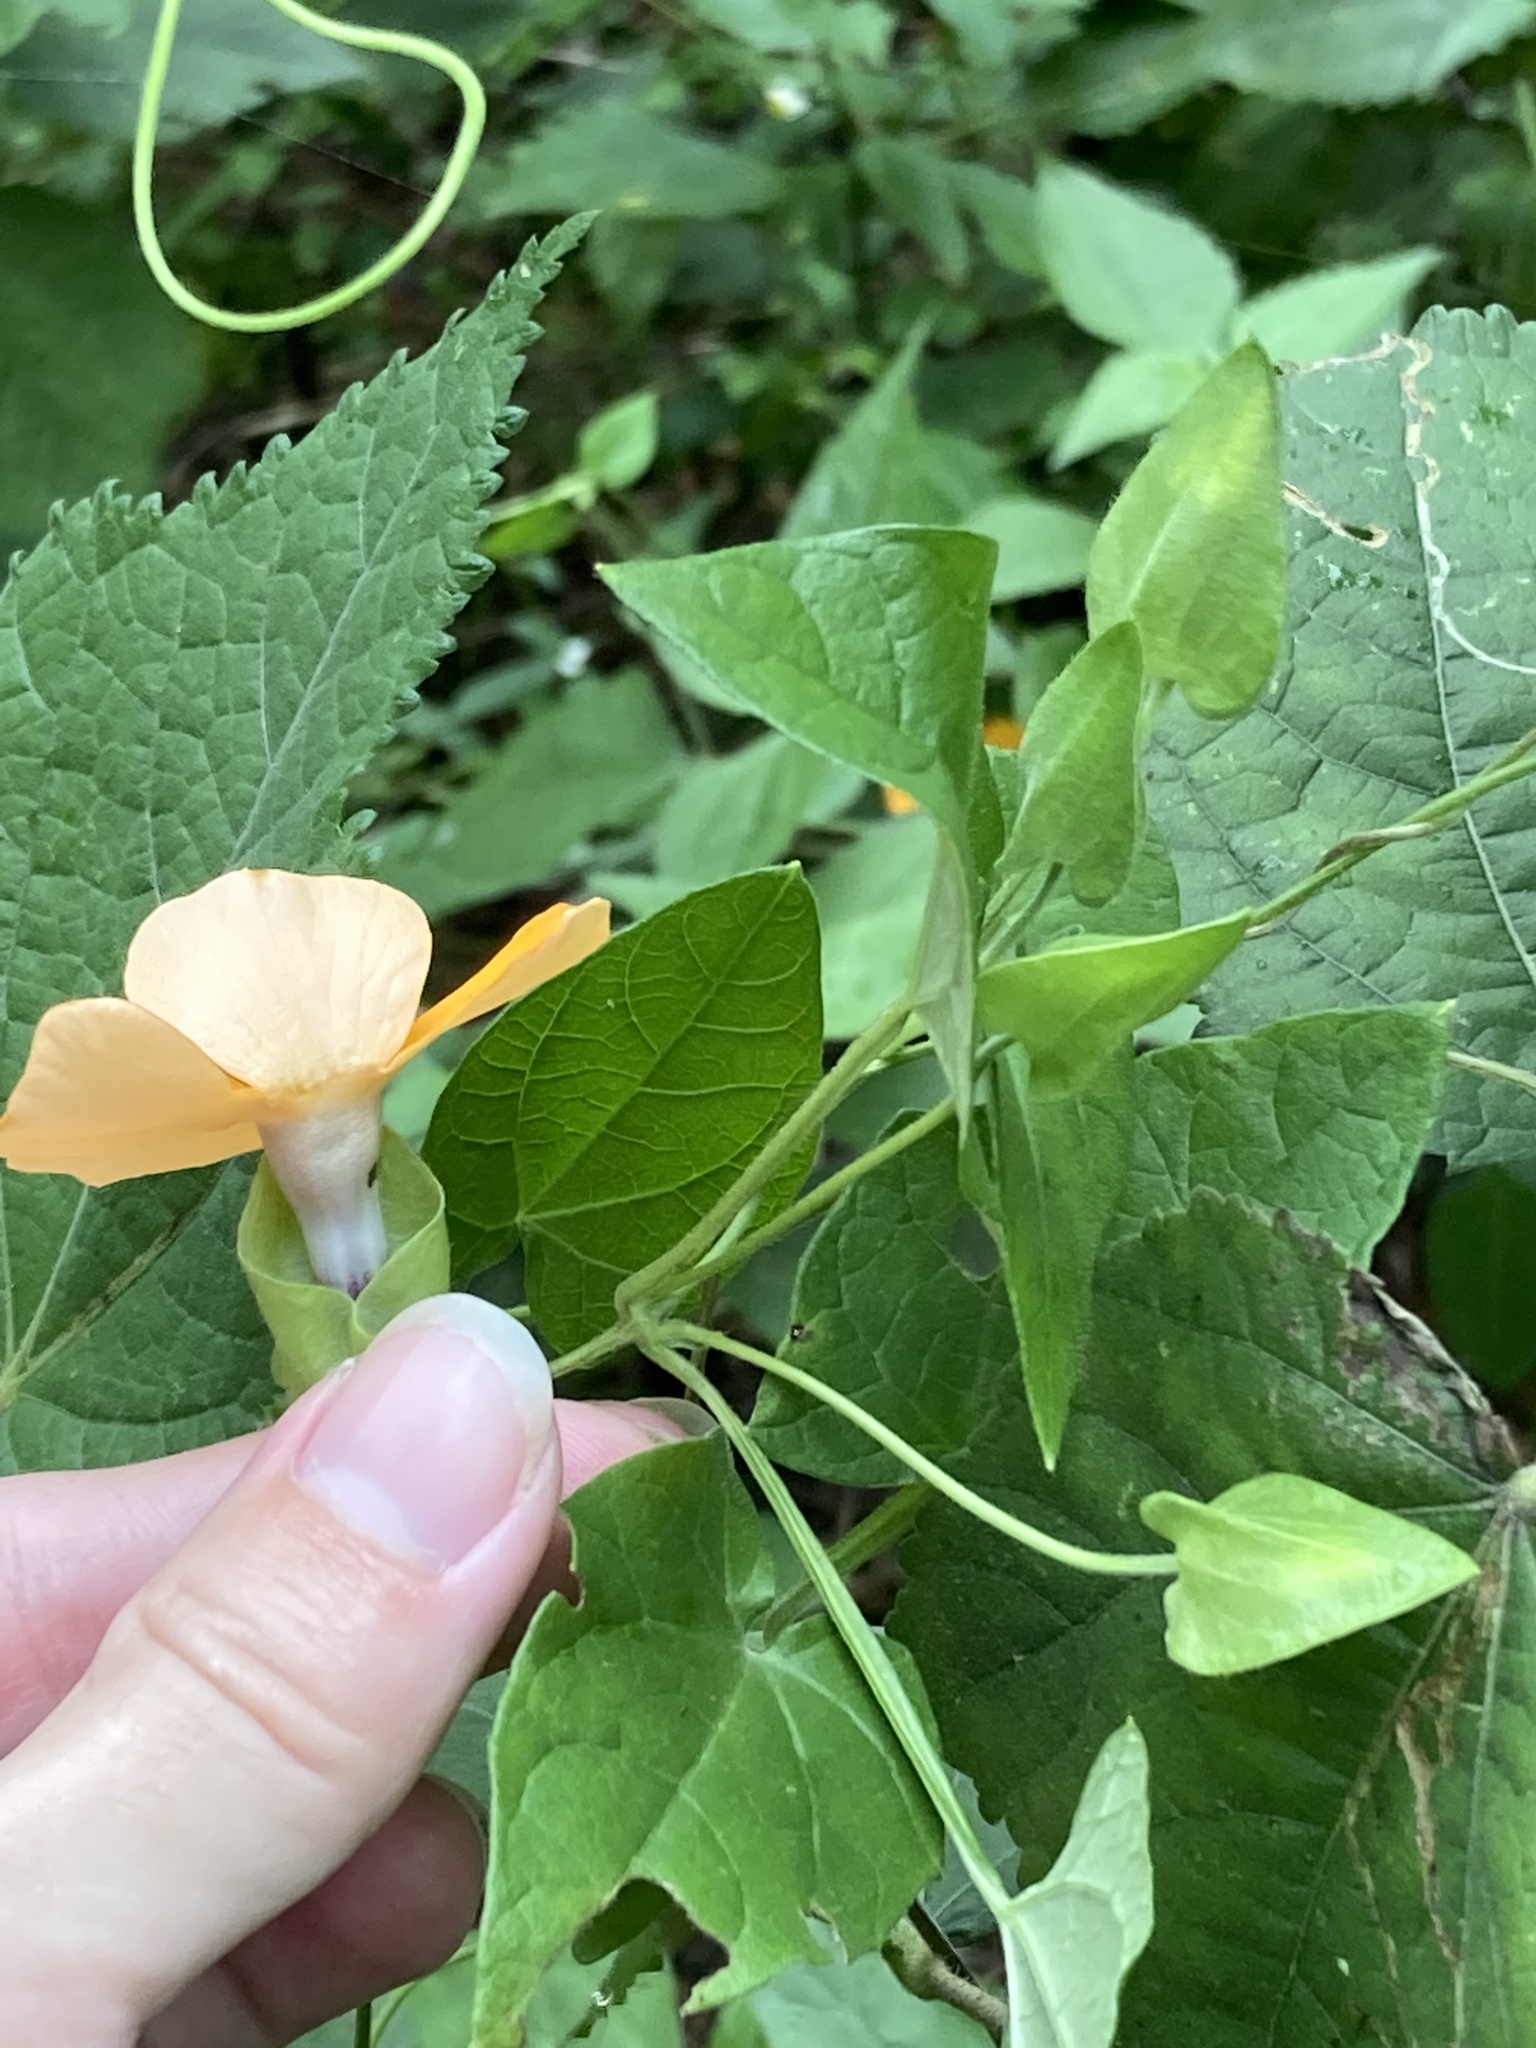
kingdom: Plantae
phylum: Tracheophyta
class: Magnoliopsida
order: Lamiales
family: Acanthaceae
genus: Thunbergia
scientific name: Thunbergia alata
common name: Blackeyed susan vine
